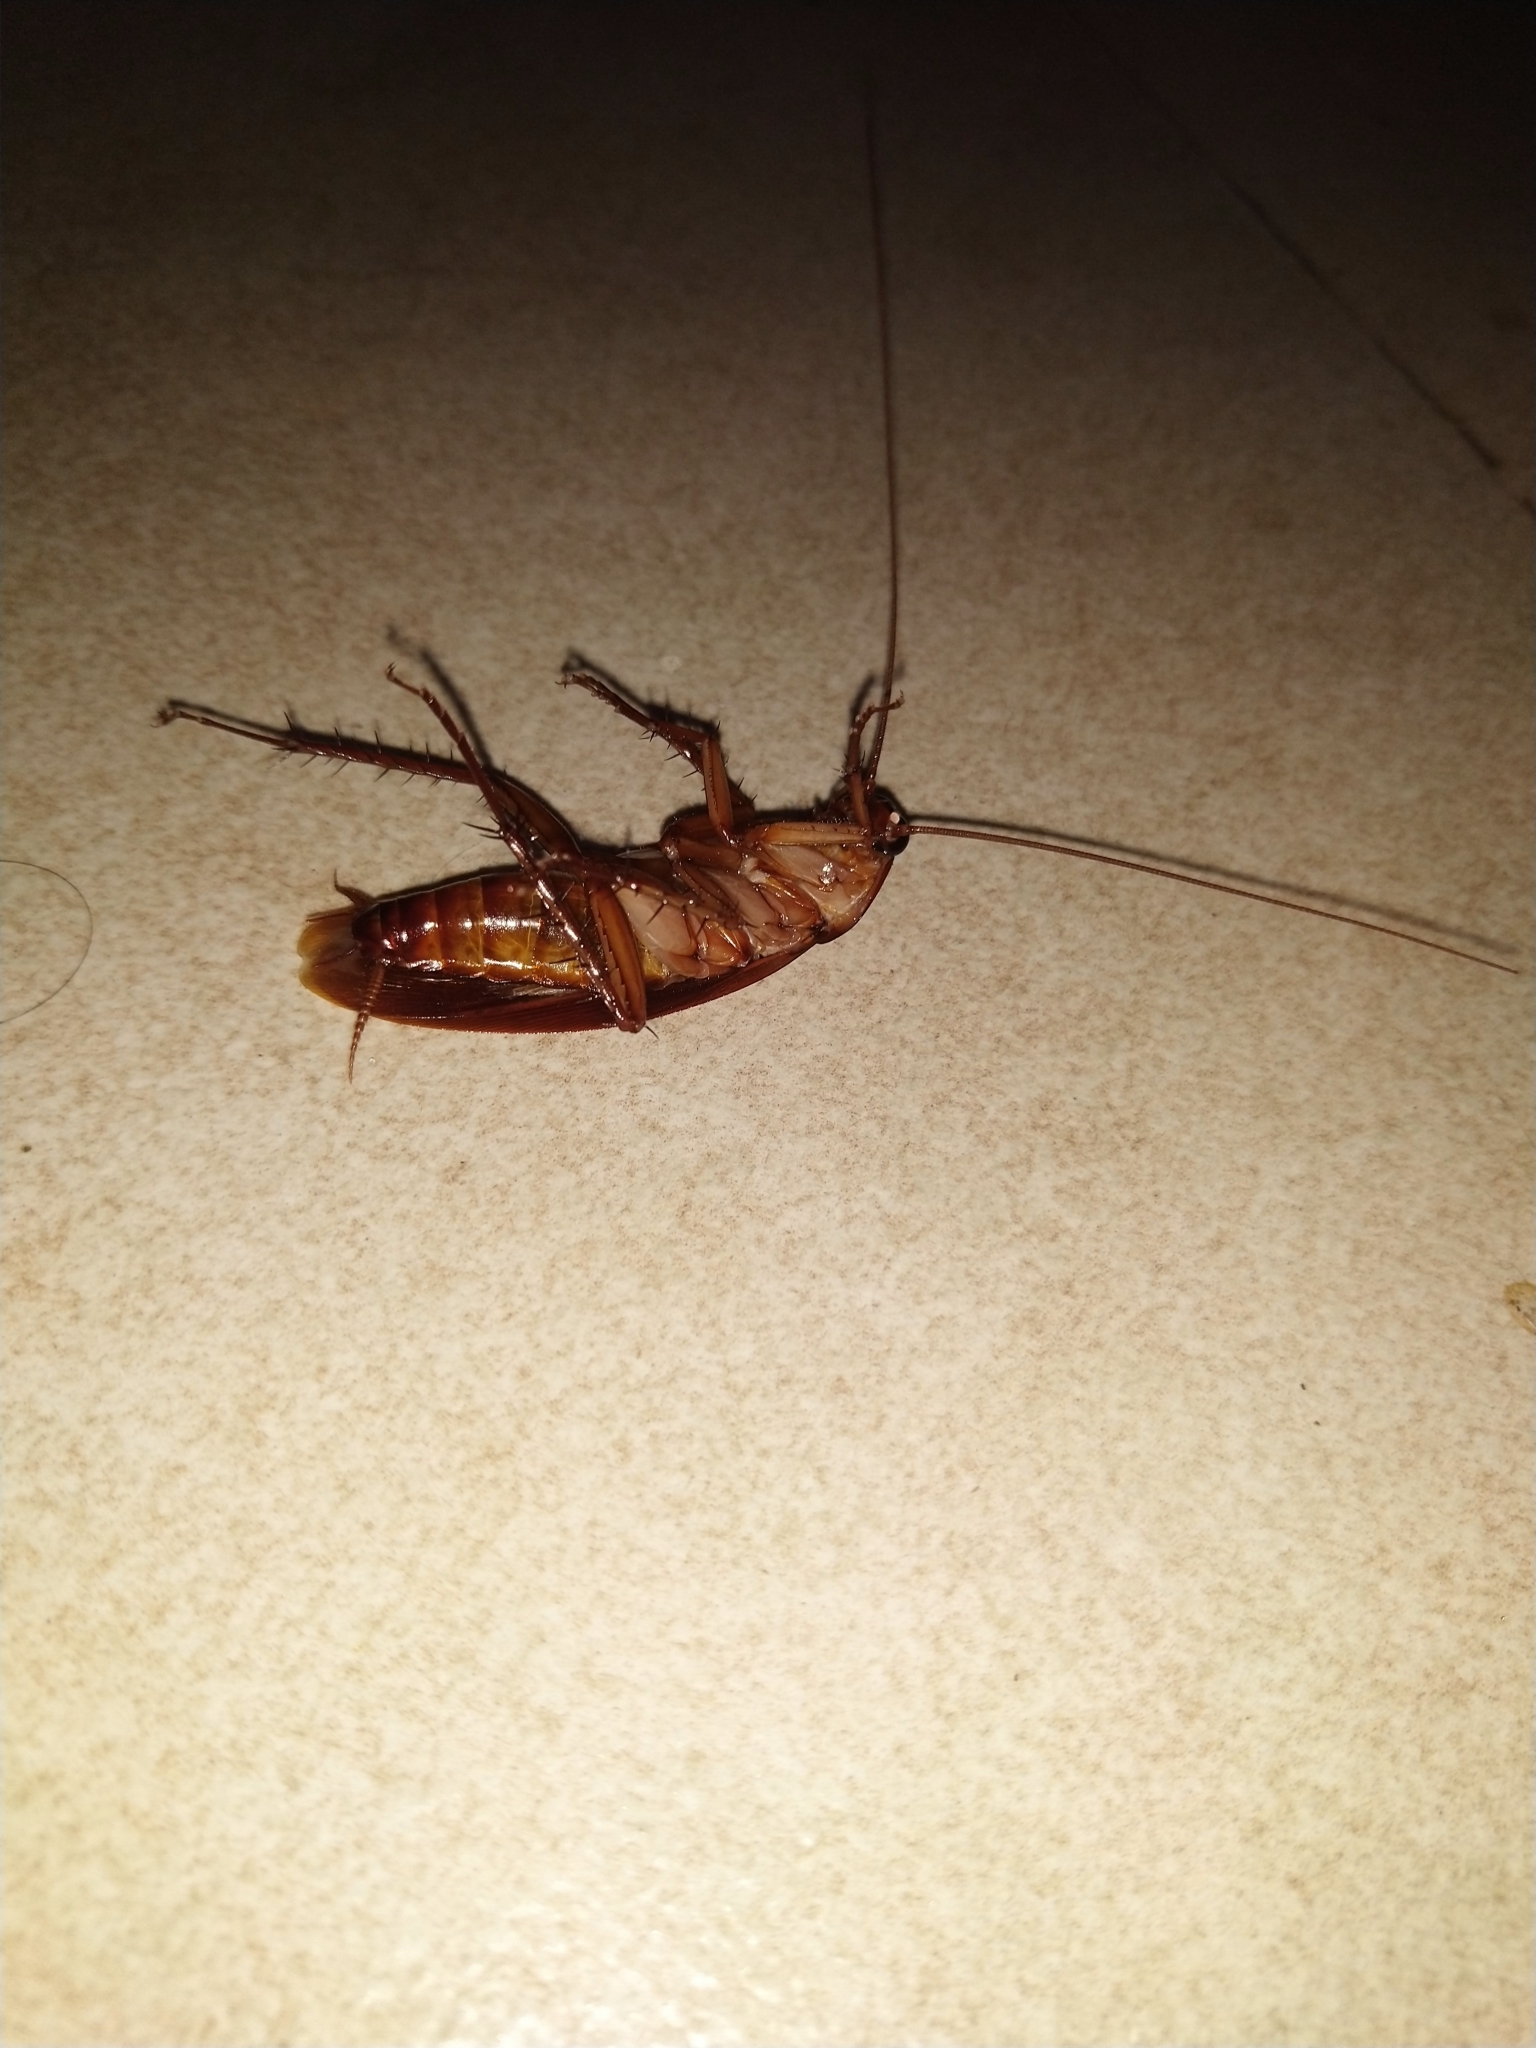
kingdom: Animalia
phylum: Arthropoda
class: Insecta
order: Blattodea
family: Blattidae
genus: Periplaneta
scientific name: Periplaneta americana
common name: American cockroach
